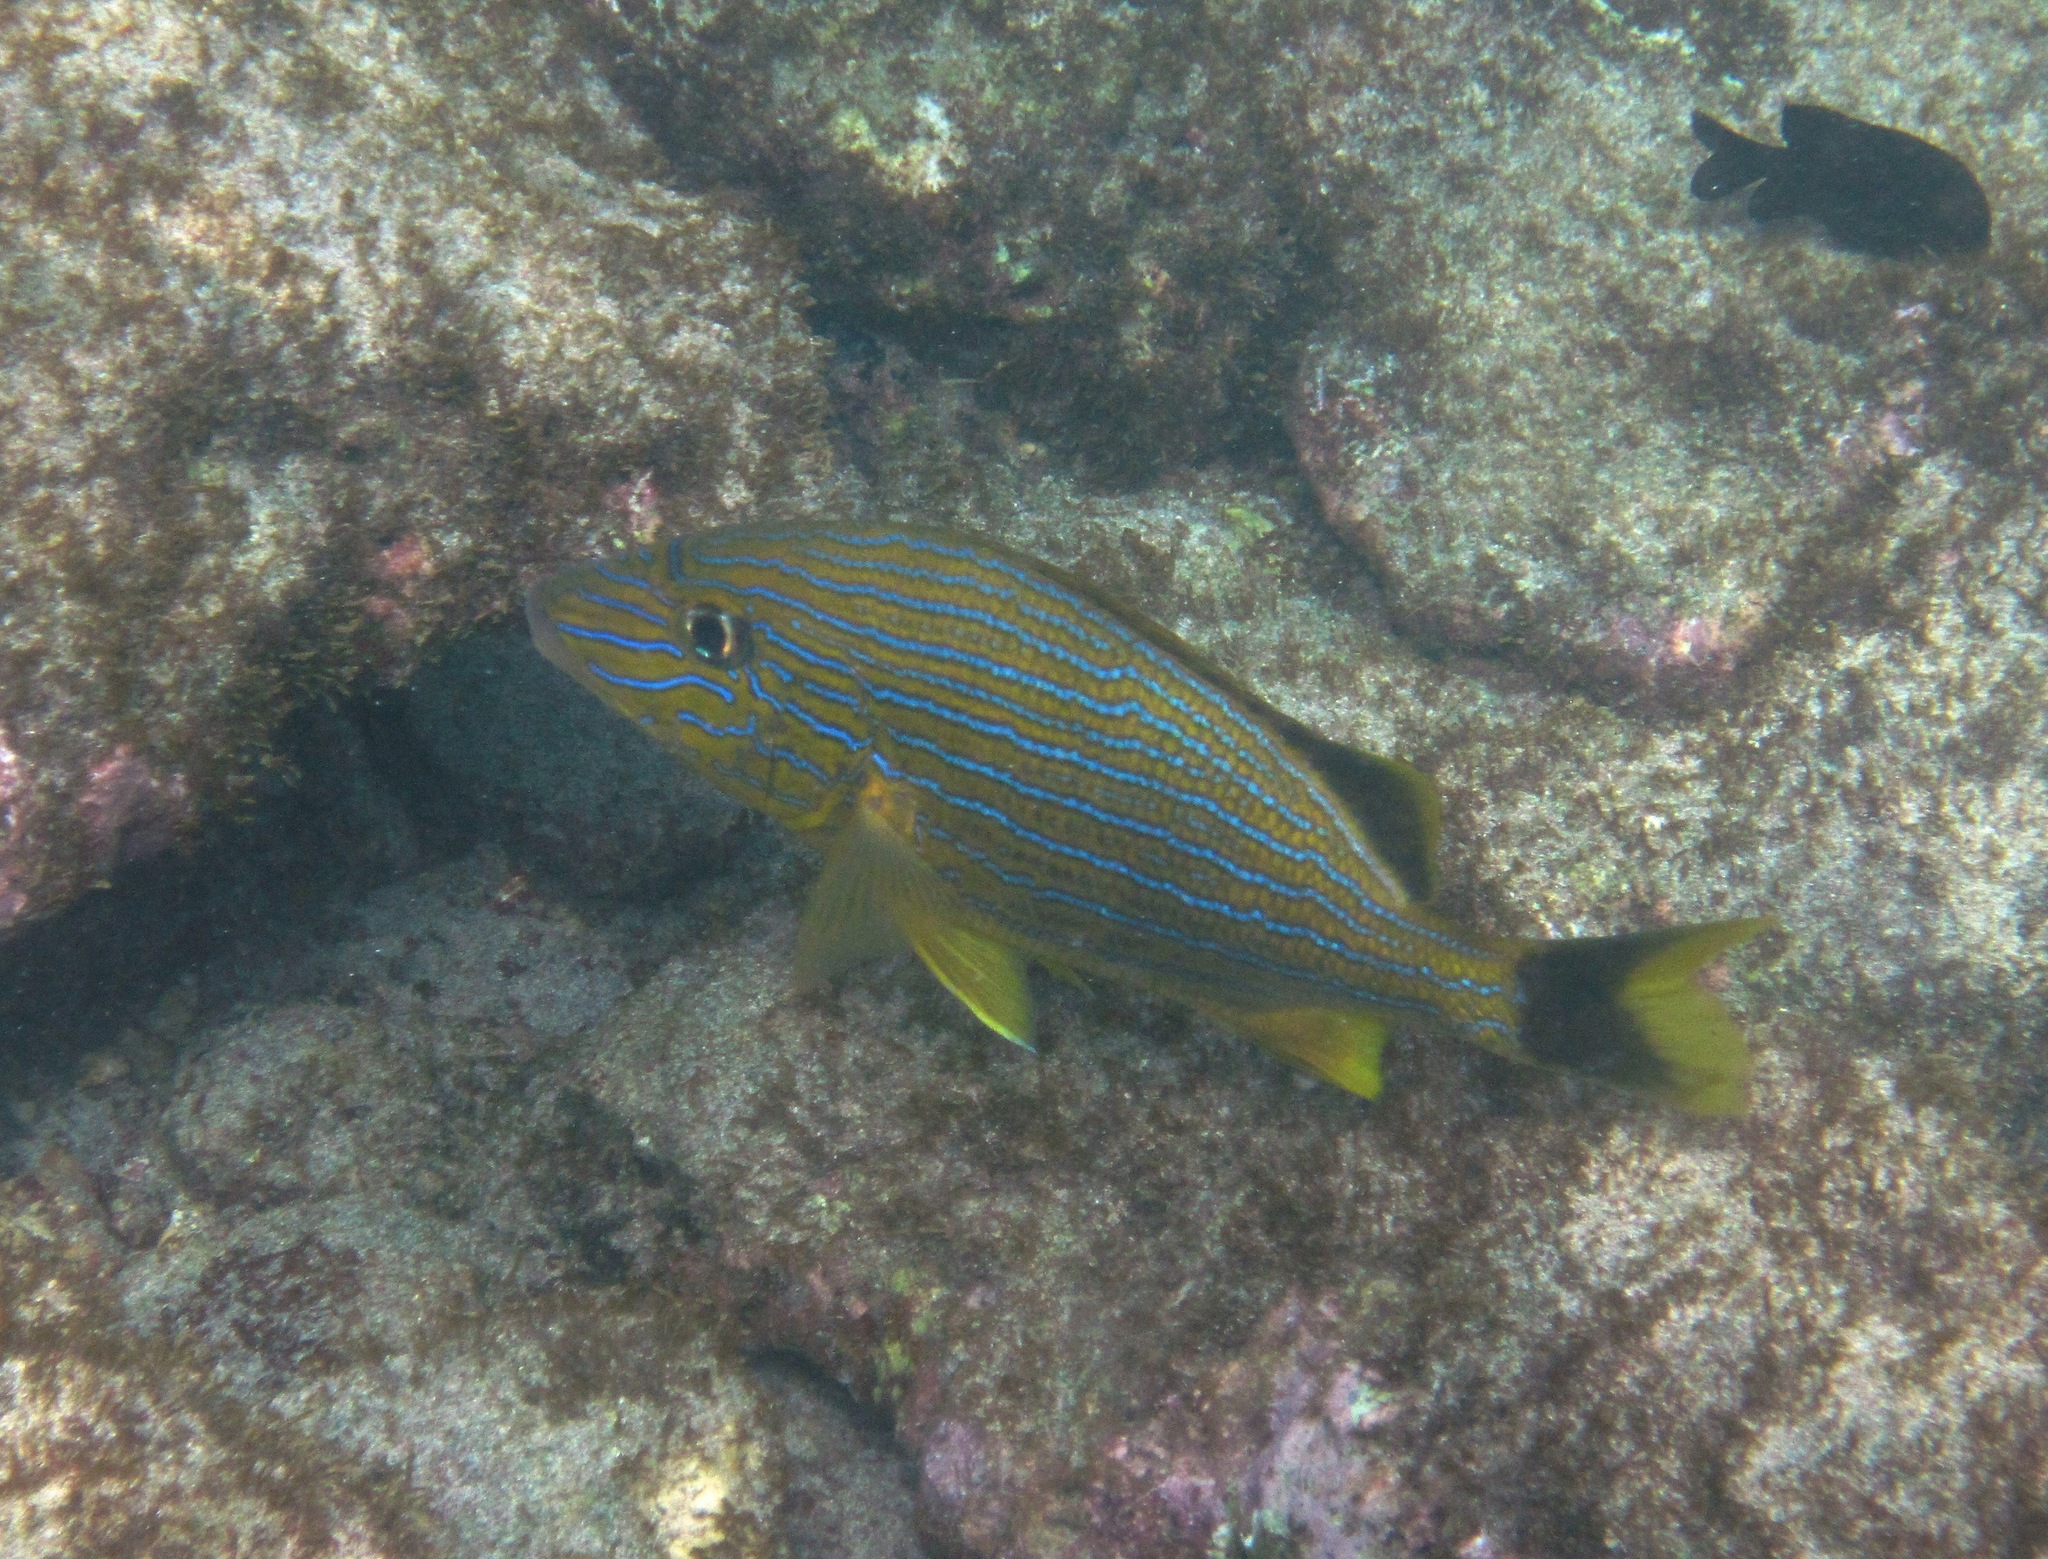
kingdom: Animalia
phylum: Chordata
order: Perciformes
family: Haemulidae
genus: Haemulon
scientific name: Haemulon sciurus
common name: Bluestriped grunt
